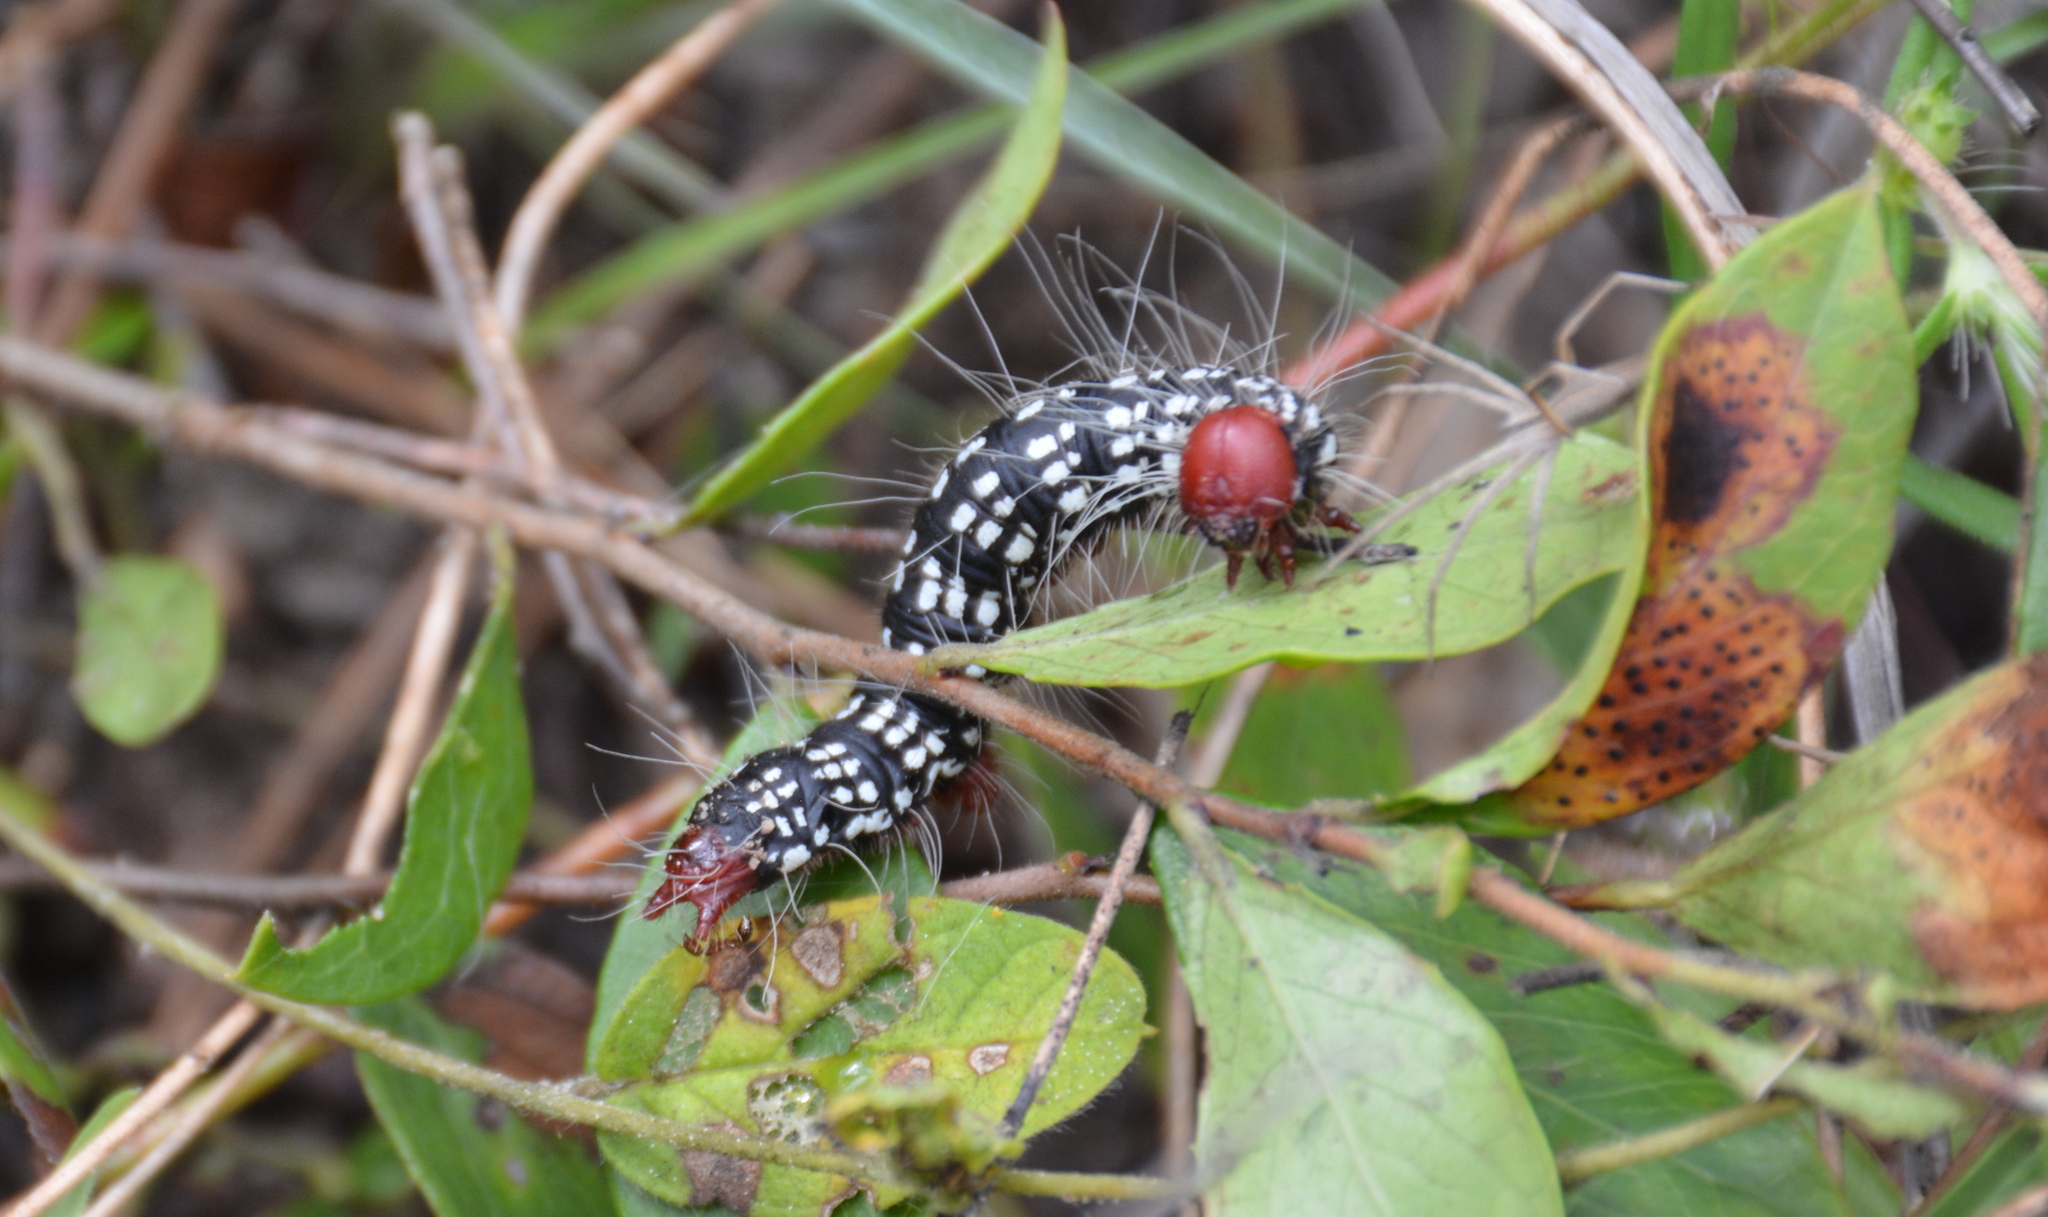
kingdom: Animalia
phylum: Arthropoda
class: Insecta
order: Lepidoptera
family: Notodontidae
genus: Datana
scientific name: Datana major
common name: Azalea caterpillar
